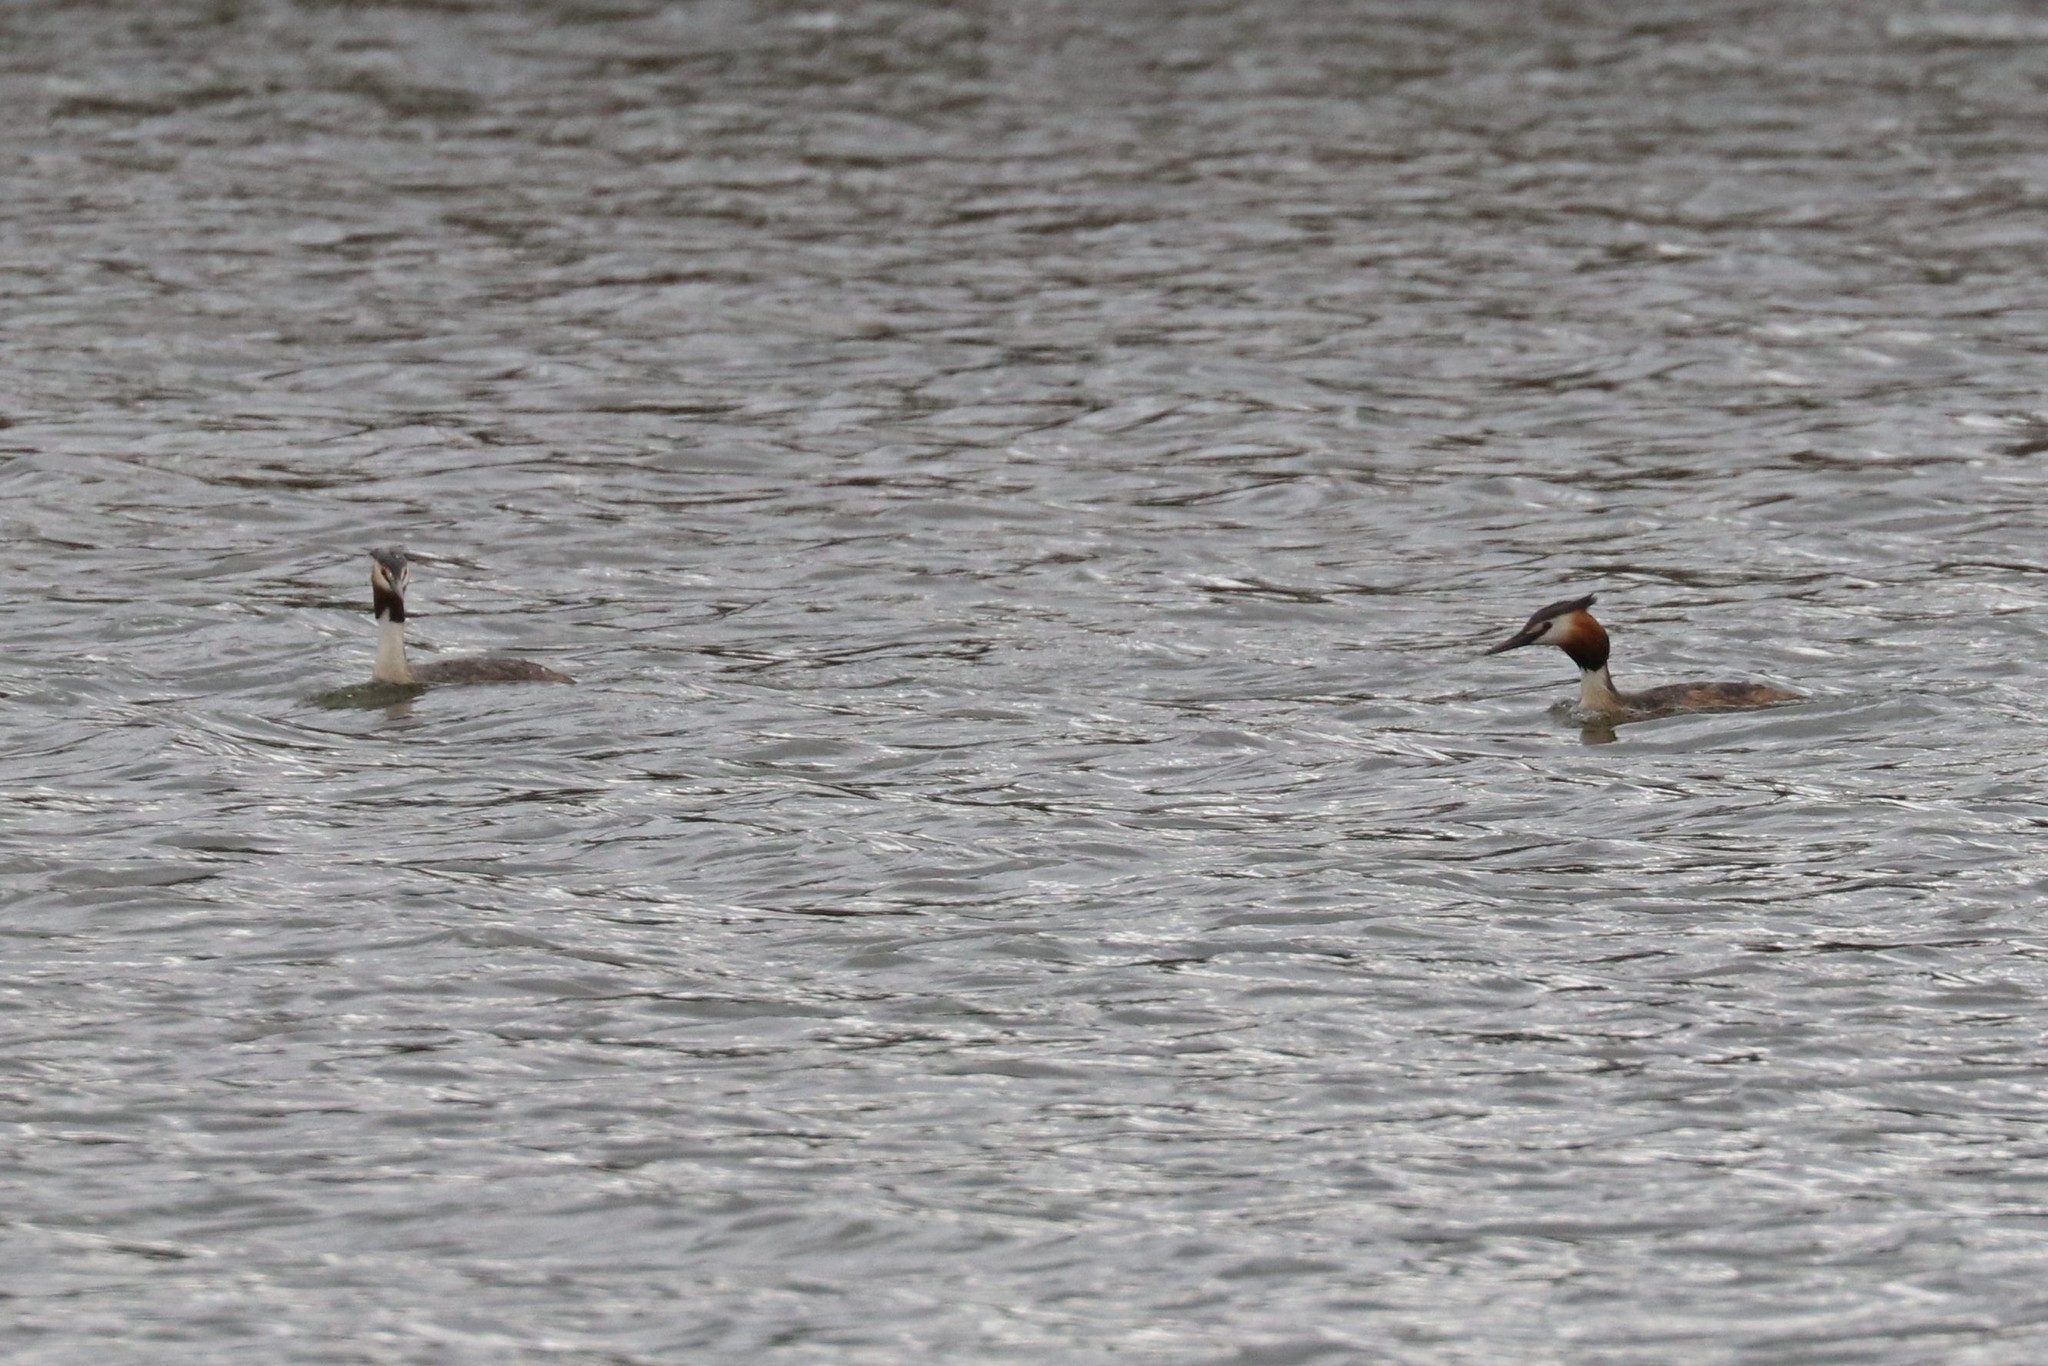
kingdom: Animalia
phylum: Chordata
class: Aves
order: Podicipediformes
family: Podicipedidae
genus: Podiceps
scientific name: Podiceps cristatus
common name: Great crested grebe
